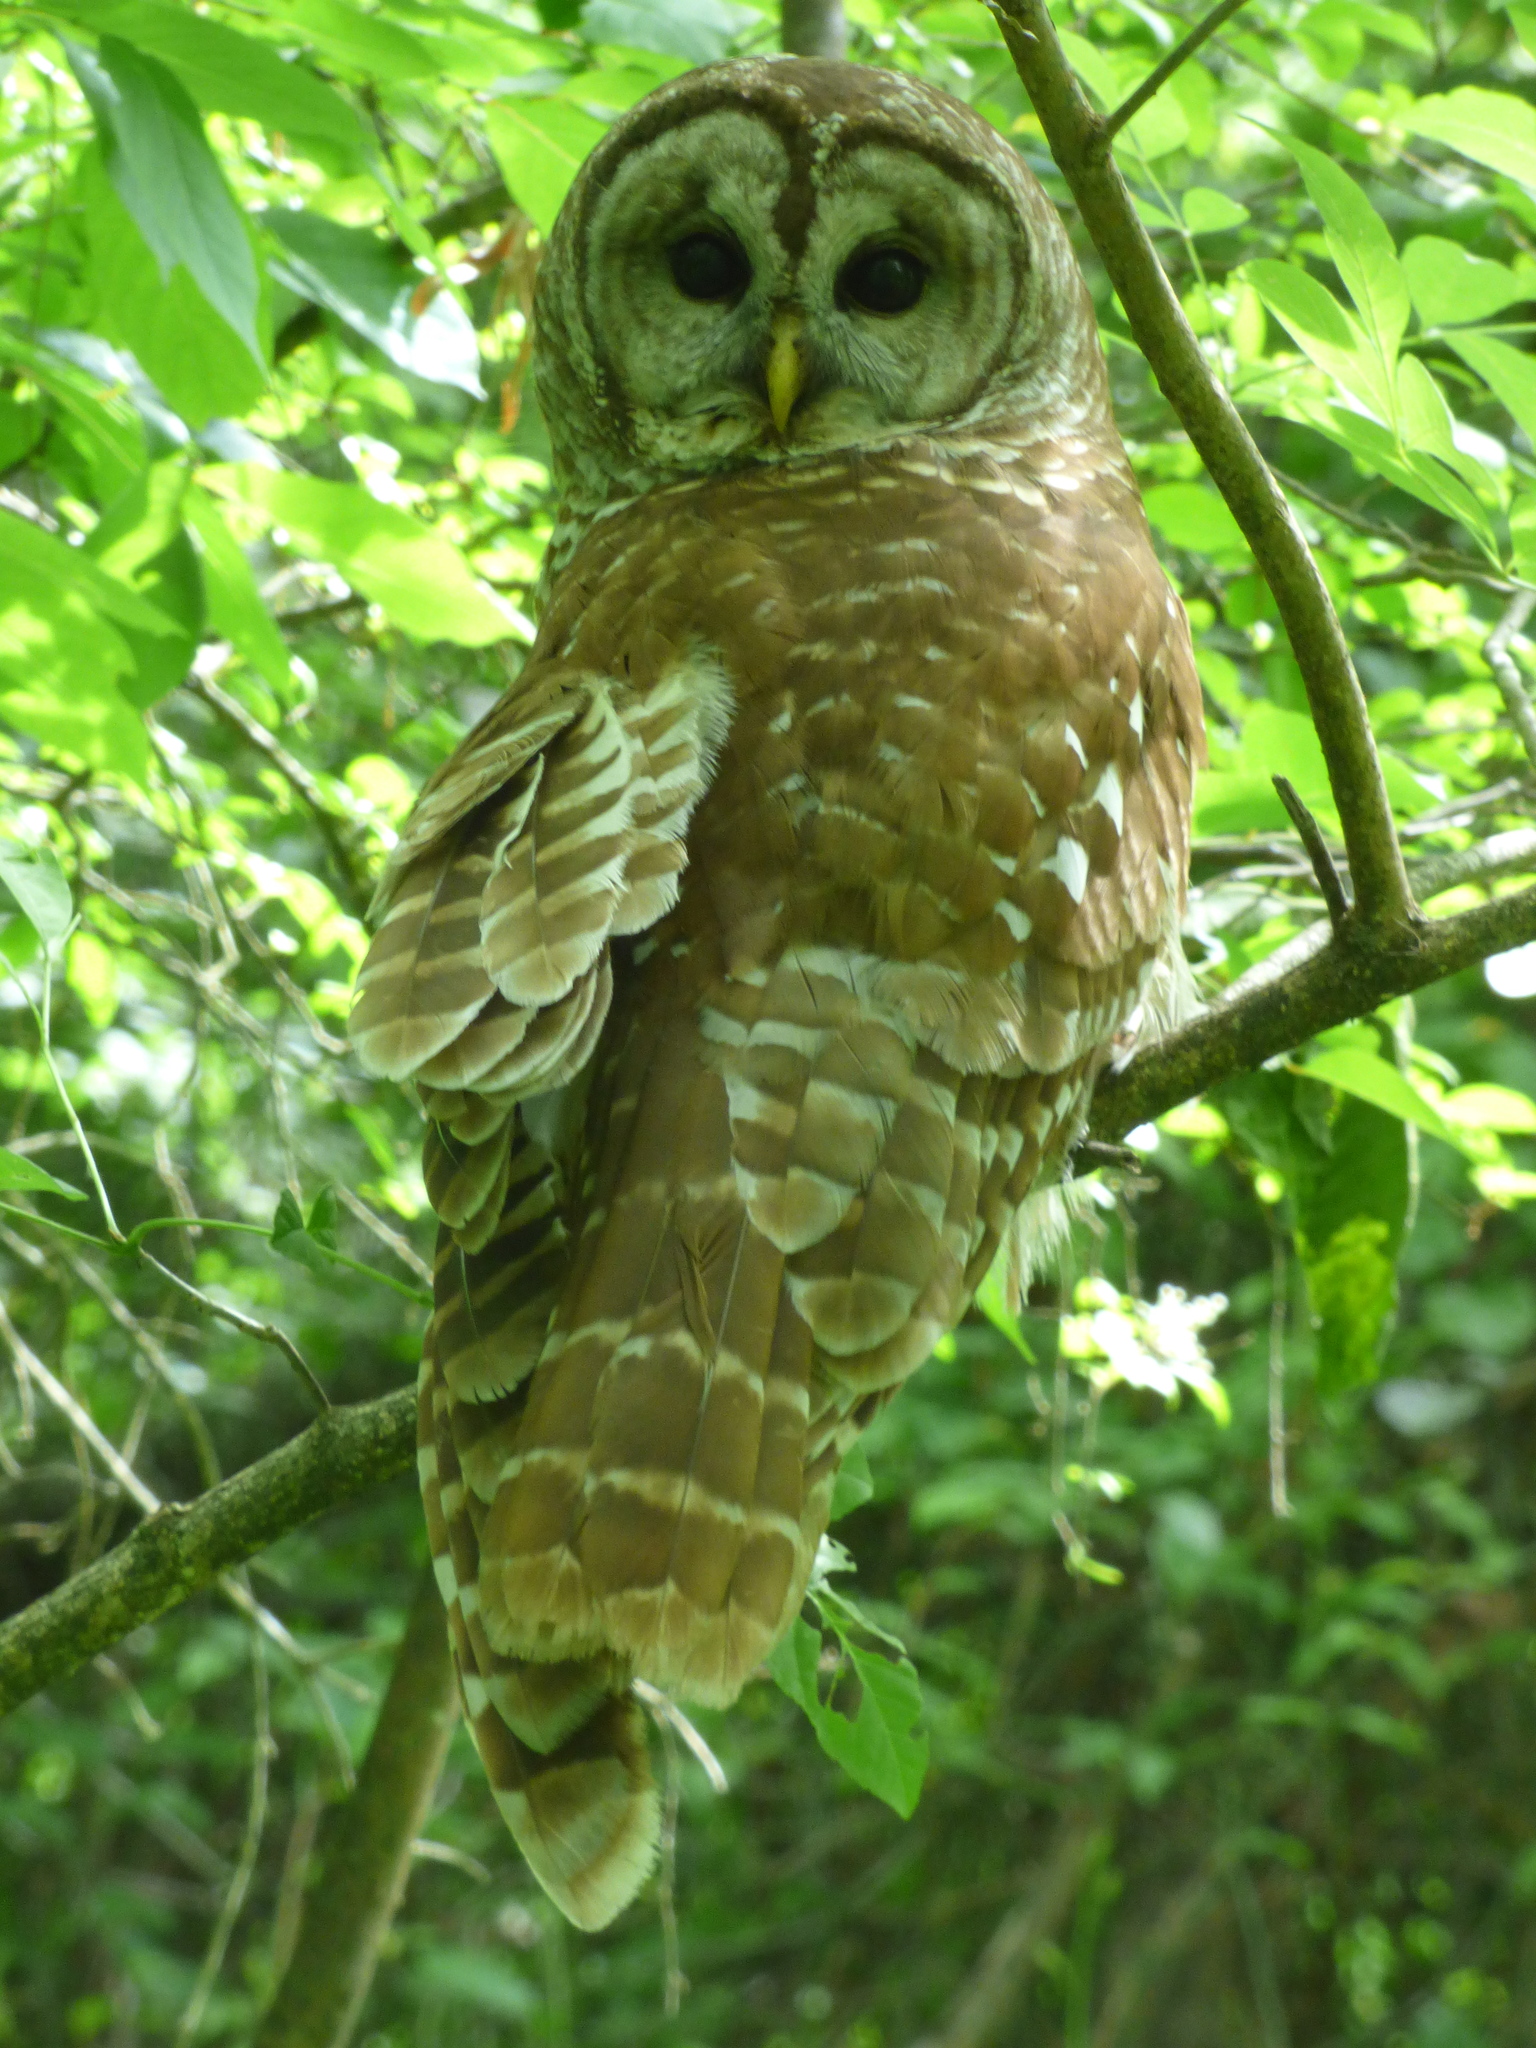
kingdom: Animalia
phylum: Chordata
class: Aves
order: Strigiformes
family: Strigidae
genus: Strix
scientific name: Strix varia
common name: Barred owl
